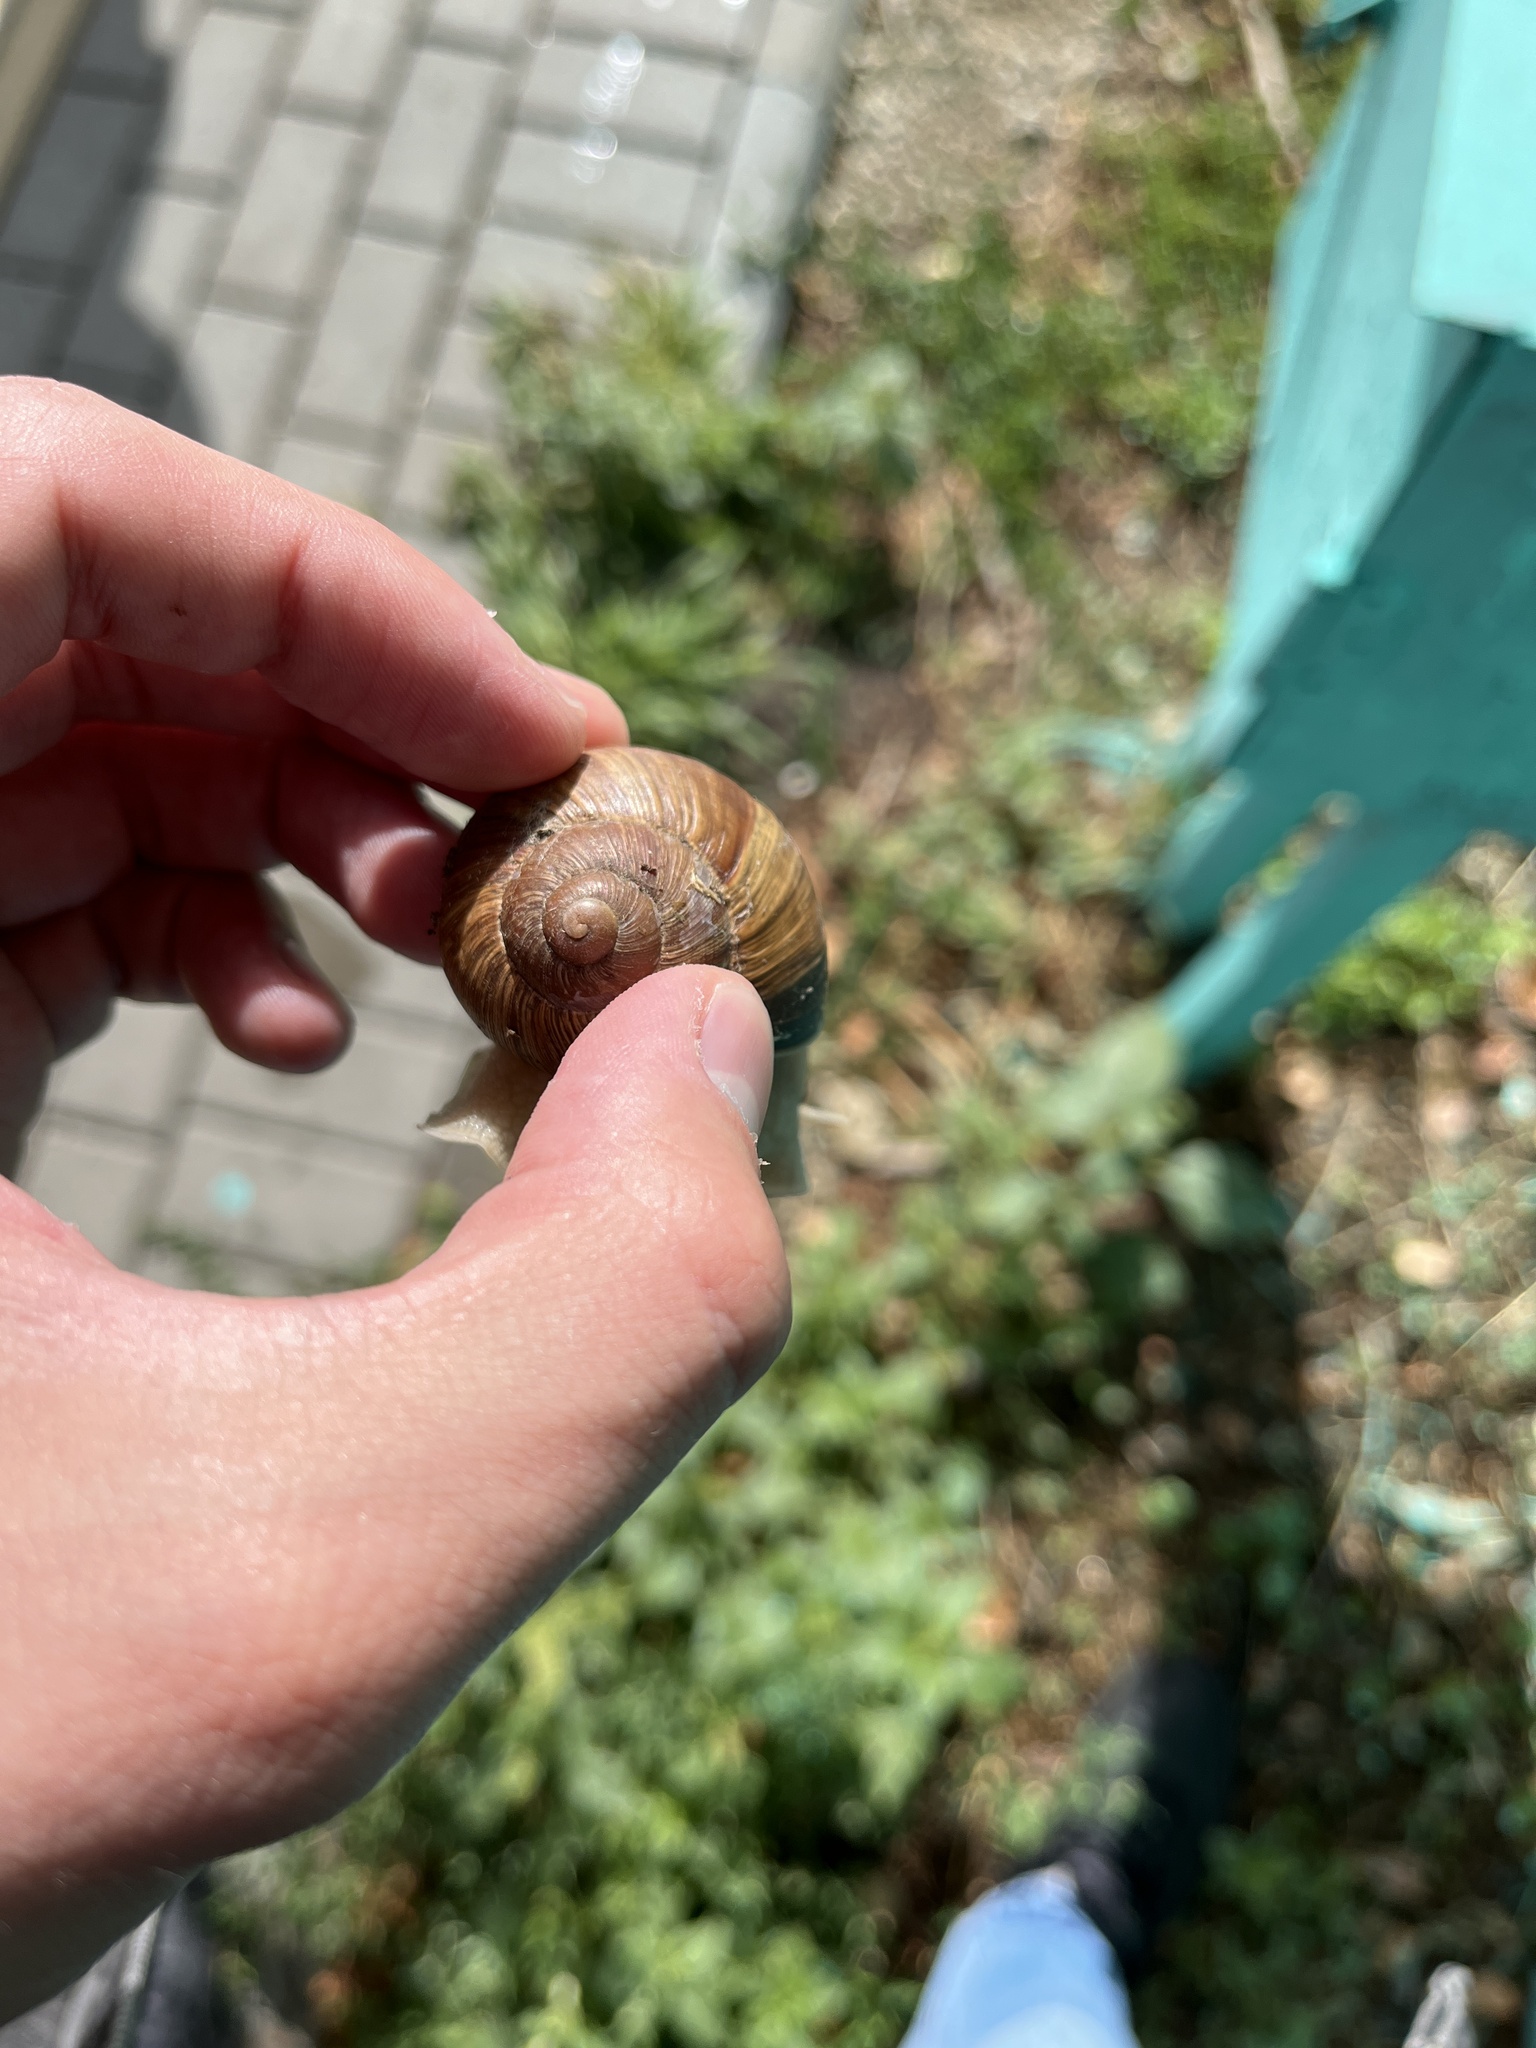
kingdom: Animalia
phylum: Mollusca
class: Gastropoda
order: Stylommatophora
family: Helicidae
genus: Helix
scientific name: Helix pomatia
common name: Roman snail
